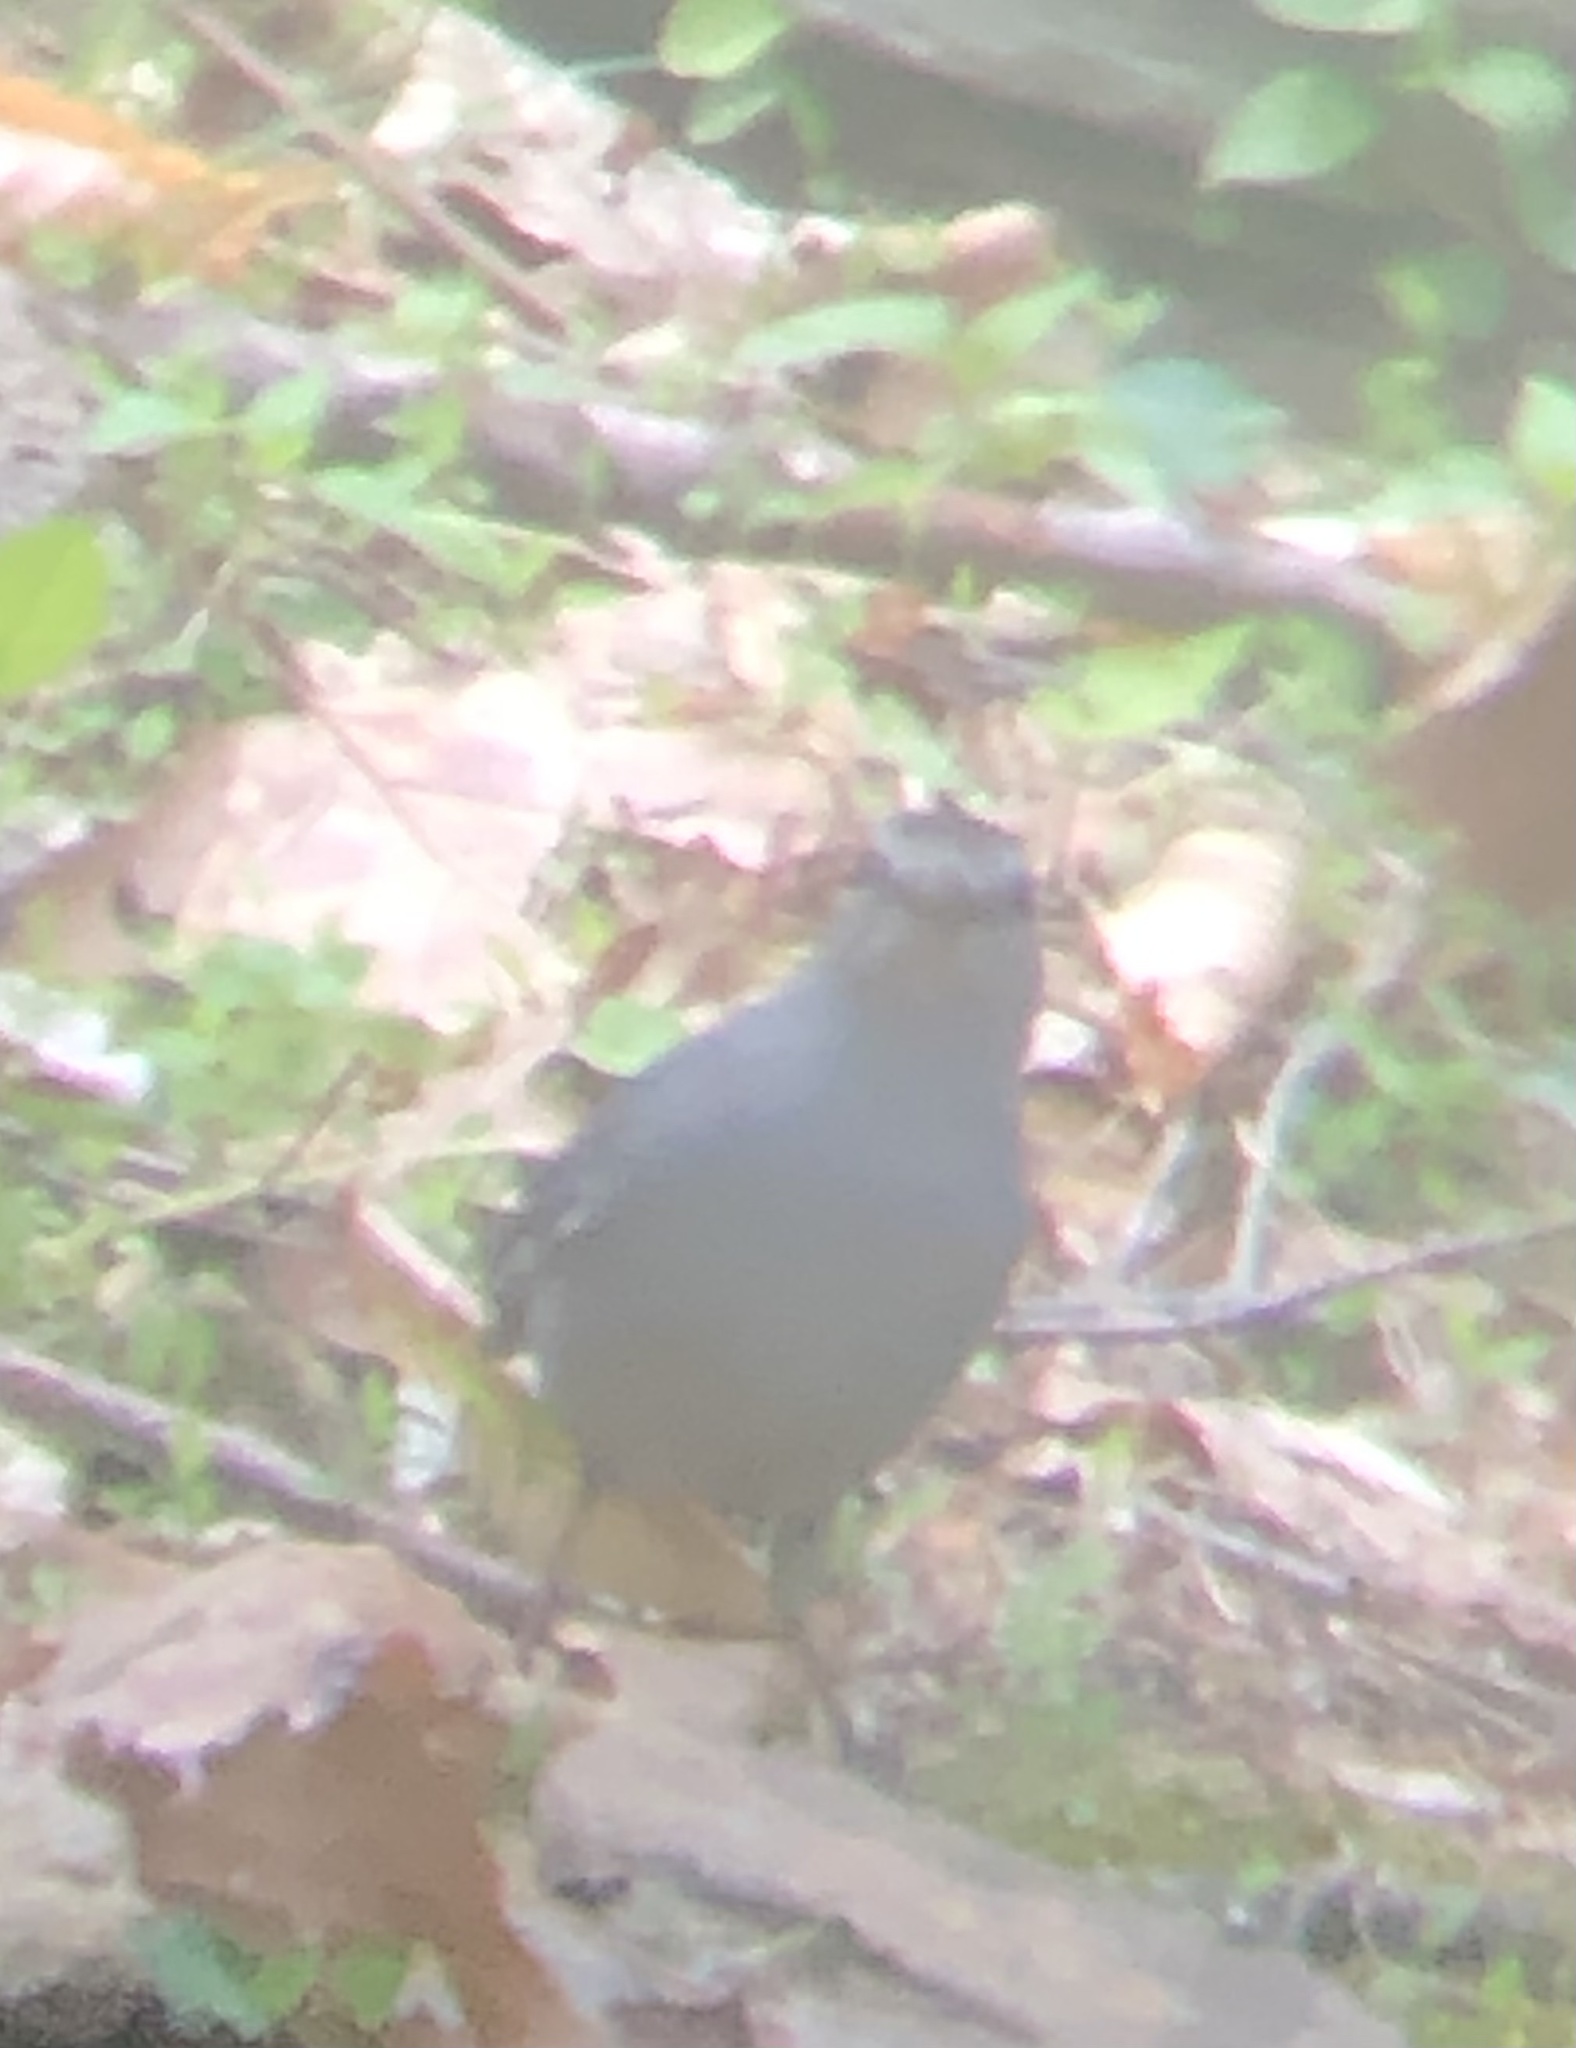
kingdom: Animalia
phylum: Chordata
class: Aves
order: Passeriformes
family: Mimidae
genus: Dumetella
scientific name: Dumetella carolinensis
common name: Gray catbird
